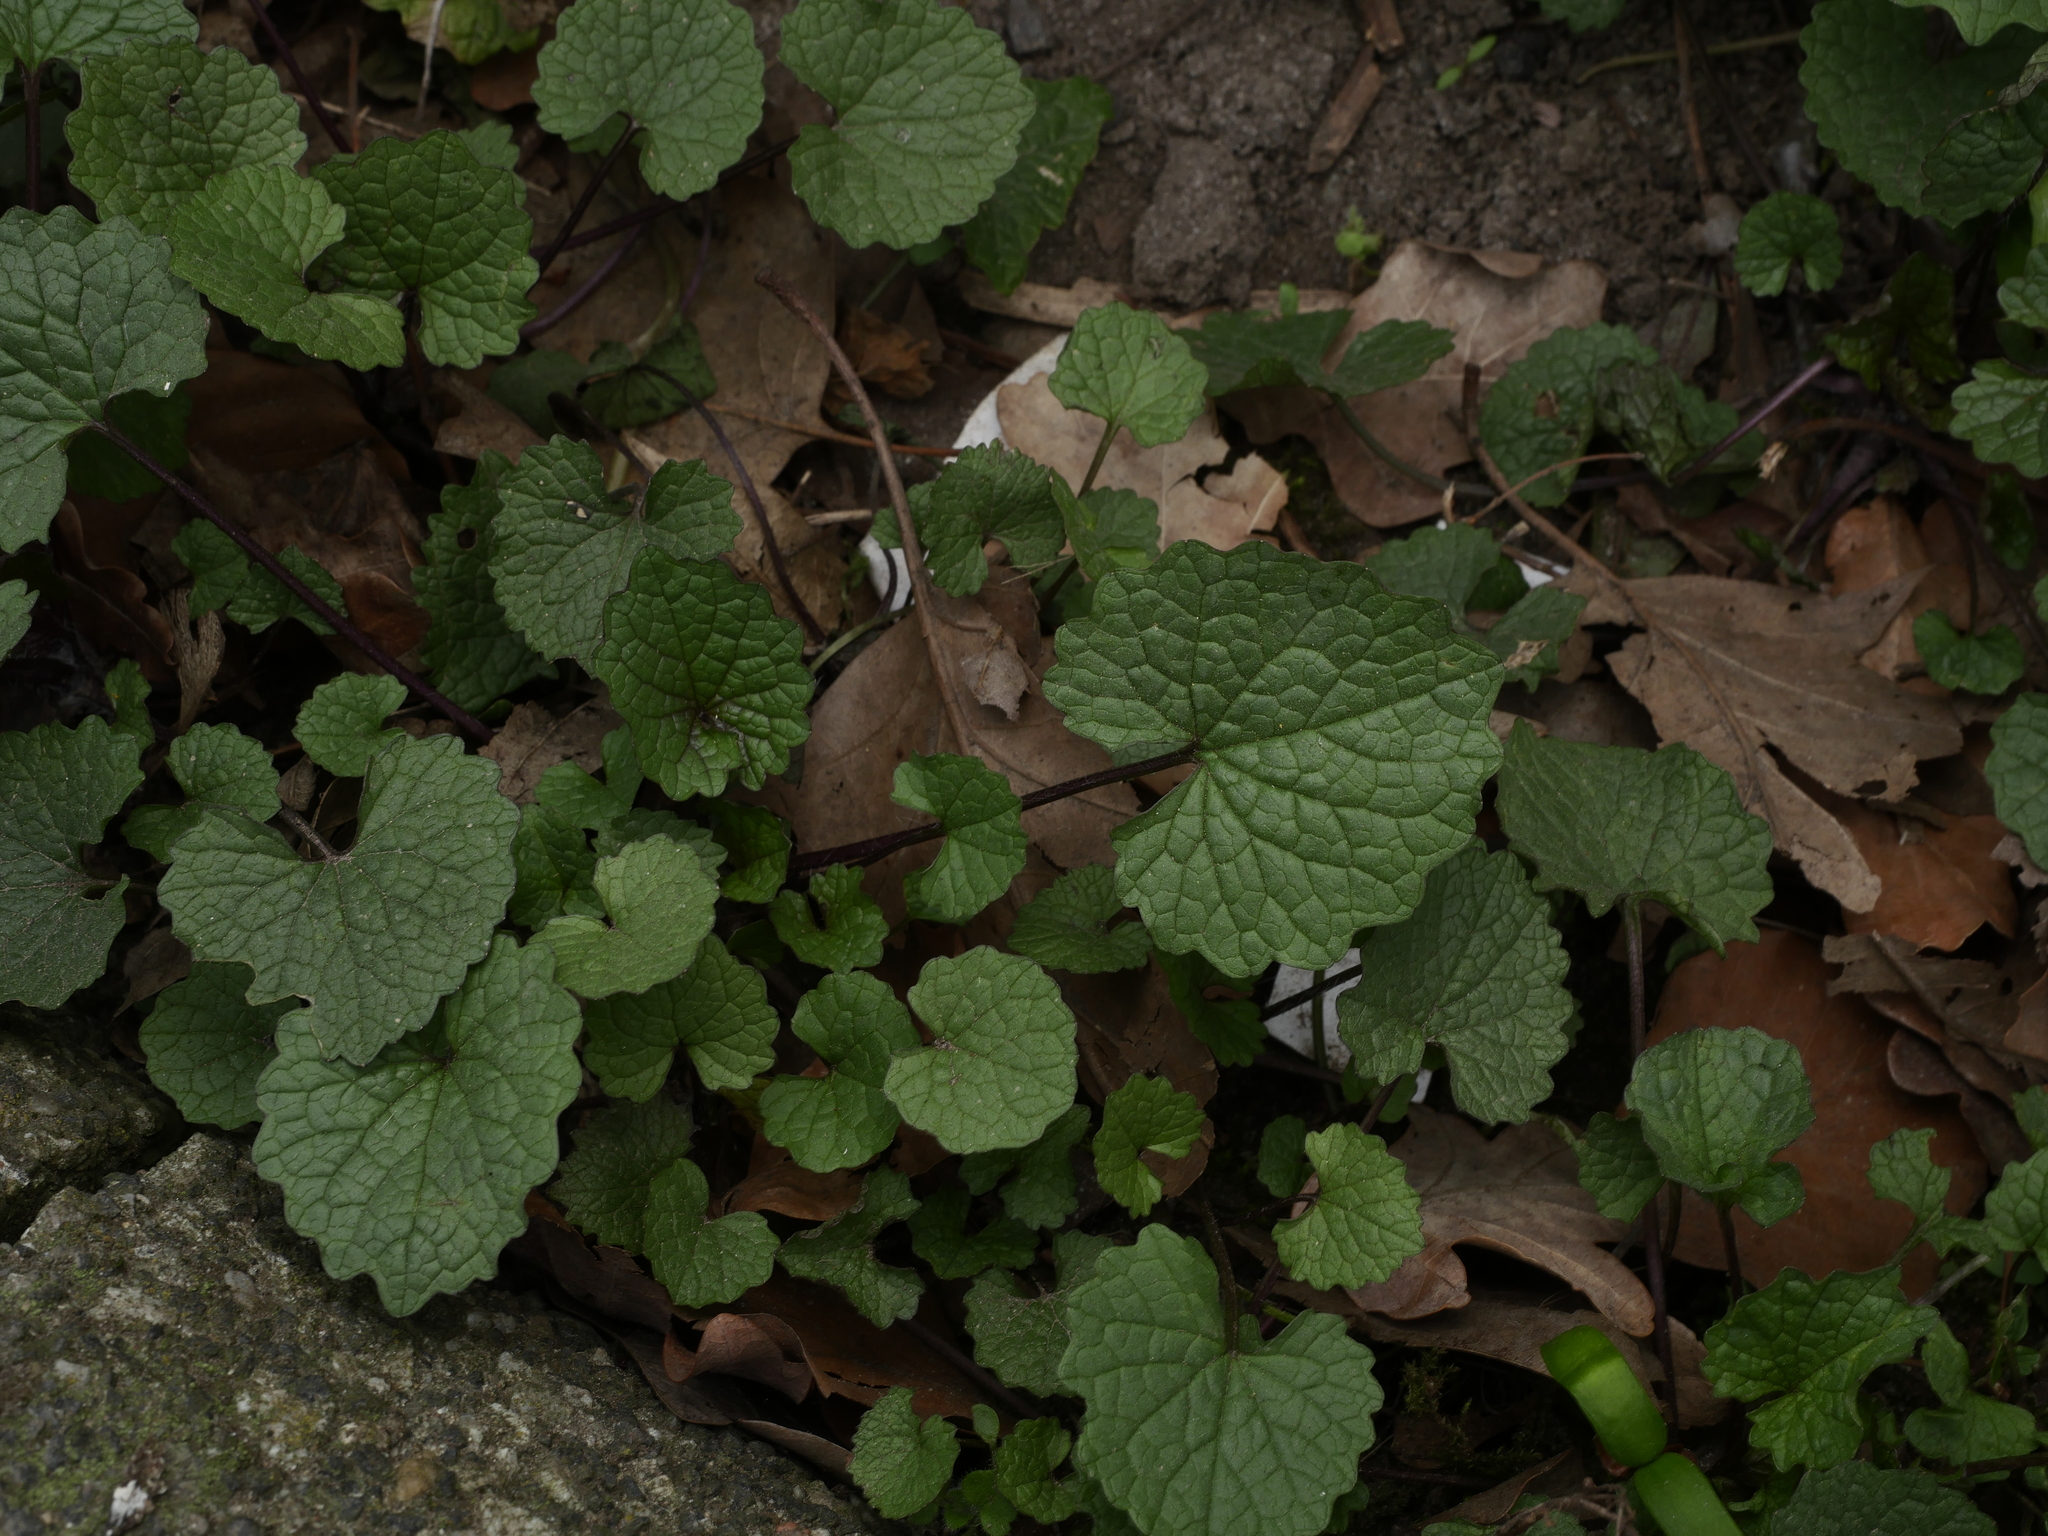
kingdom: Plantae
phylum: Tracheophyta
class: Magnoliopsida
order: Brassicales
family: Brassicaceae
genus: Alliaria
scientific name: Alliaria petiolata
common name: Garlic mustard
